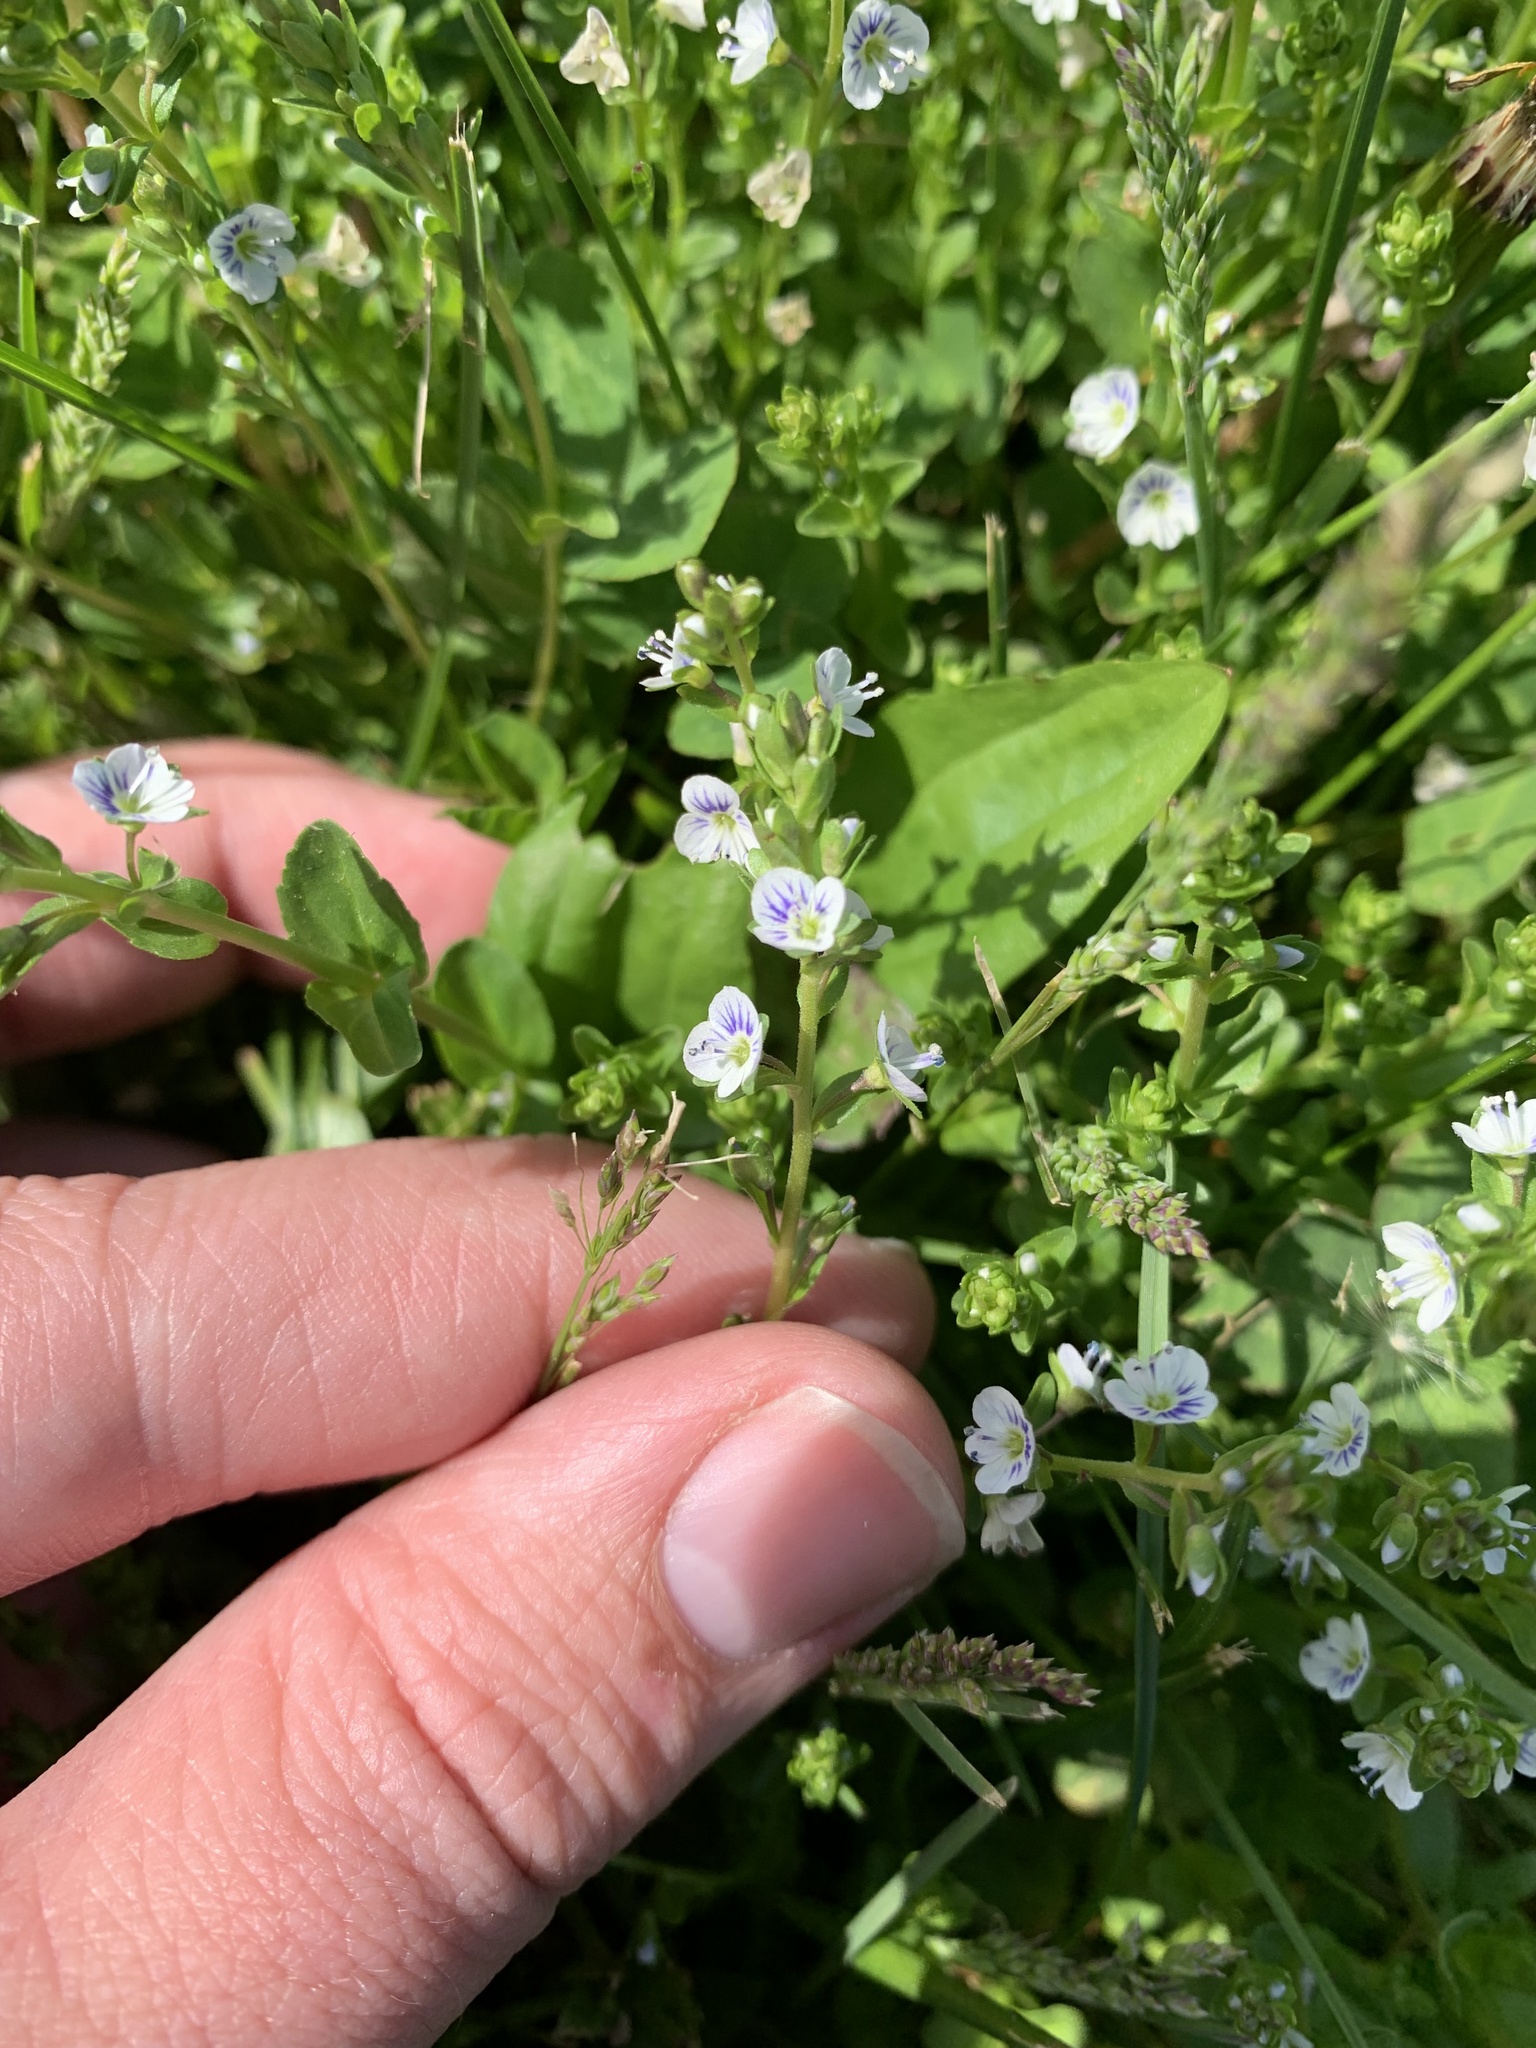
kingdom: Plantae
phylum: Tracheophyta
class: Magnoliopsida
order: Lamiales
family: Plantaginaceae
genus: Veronica
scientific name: Veronica serpyllifolia
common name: Thyme-leaved speedwell
